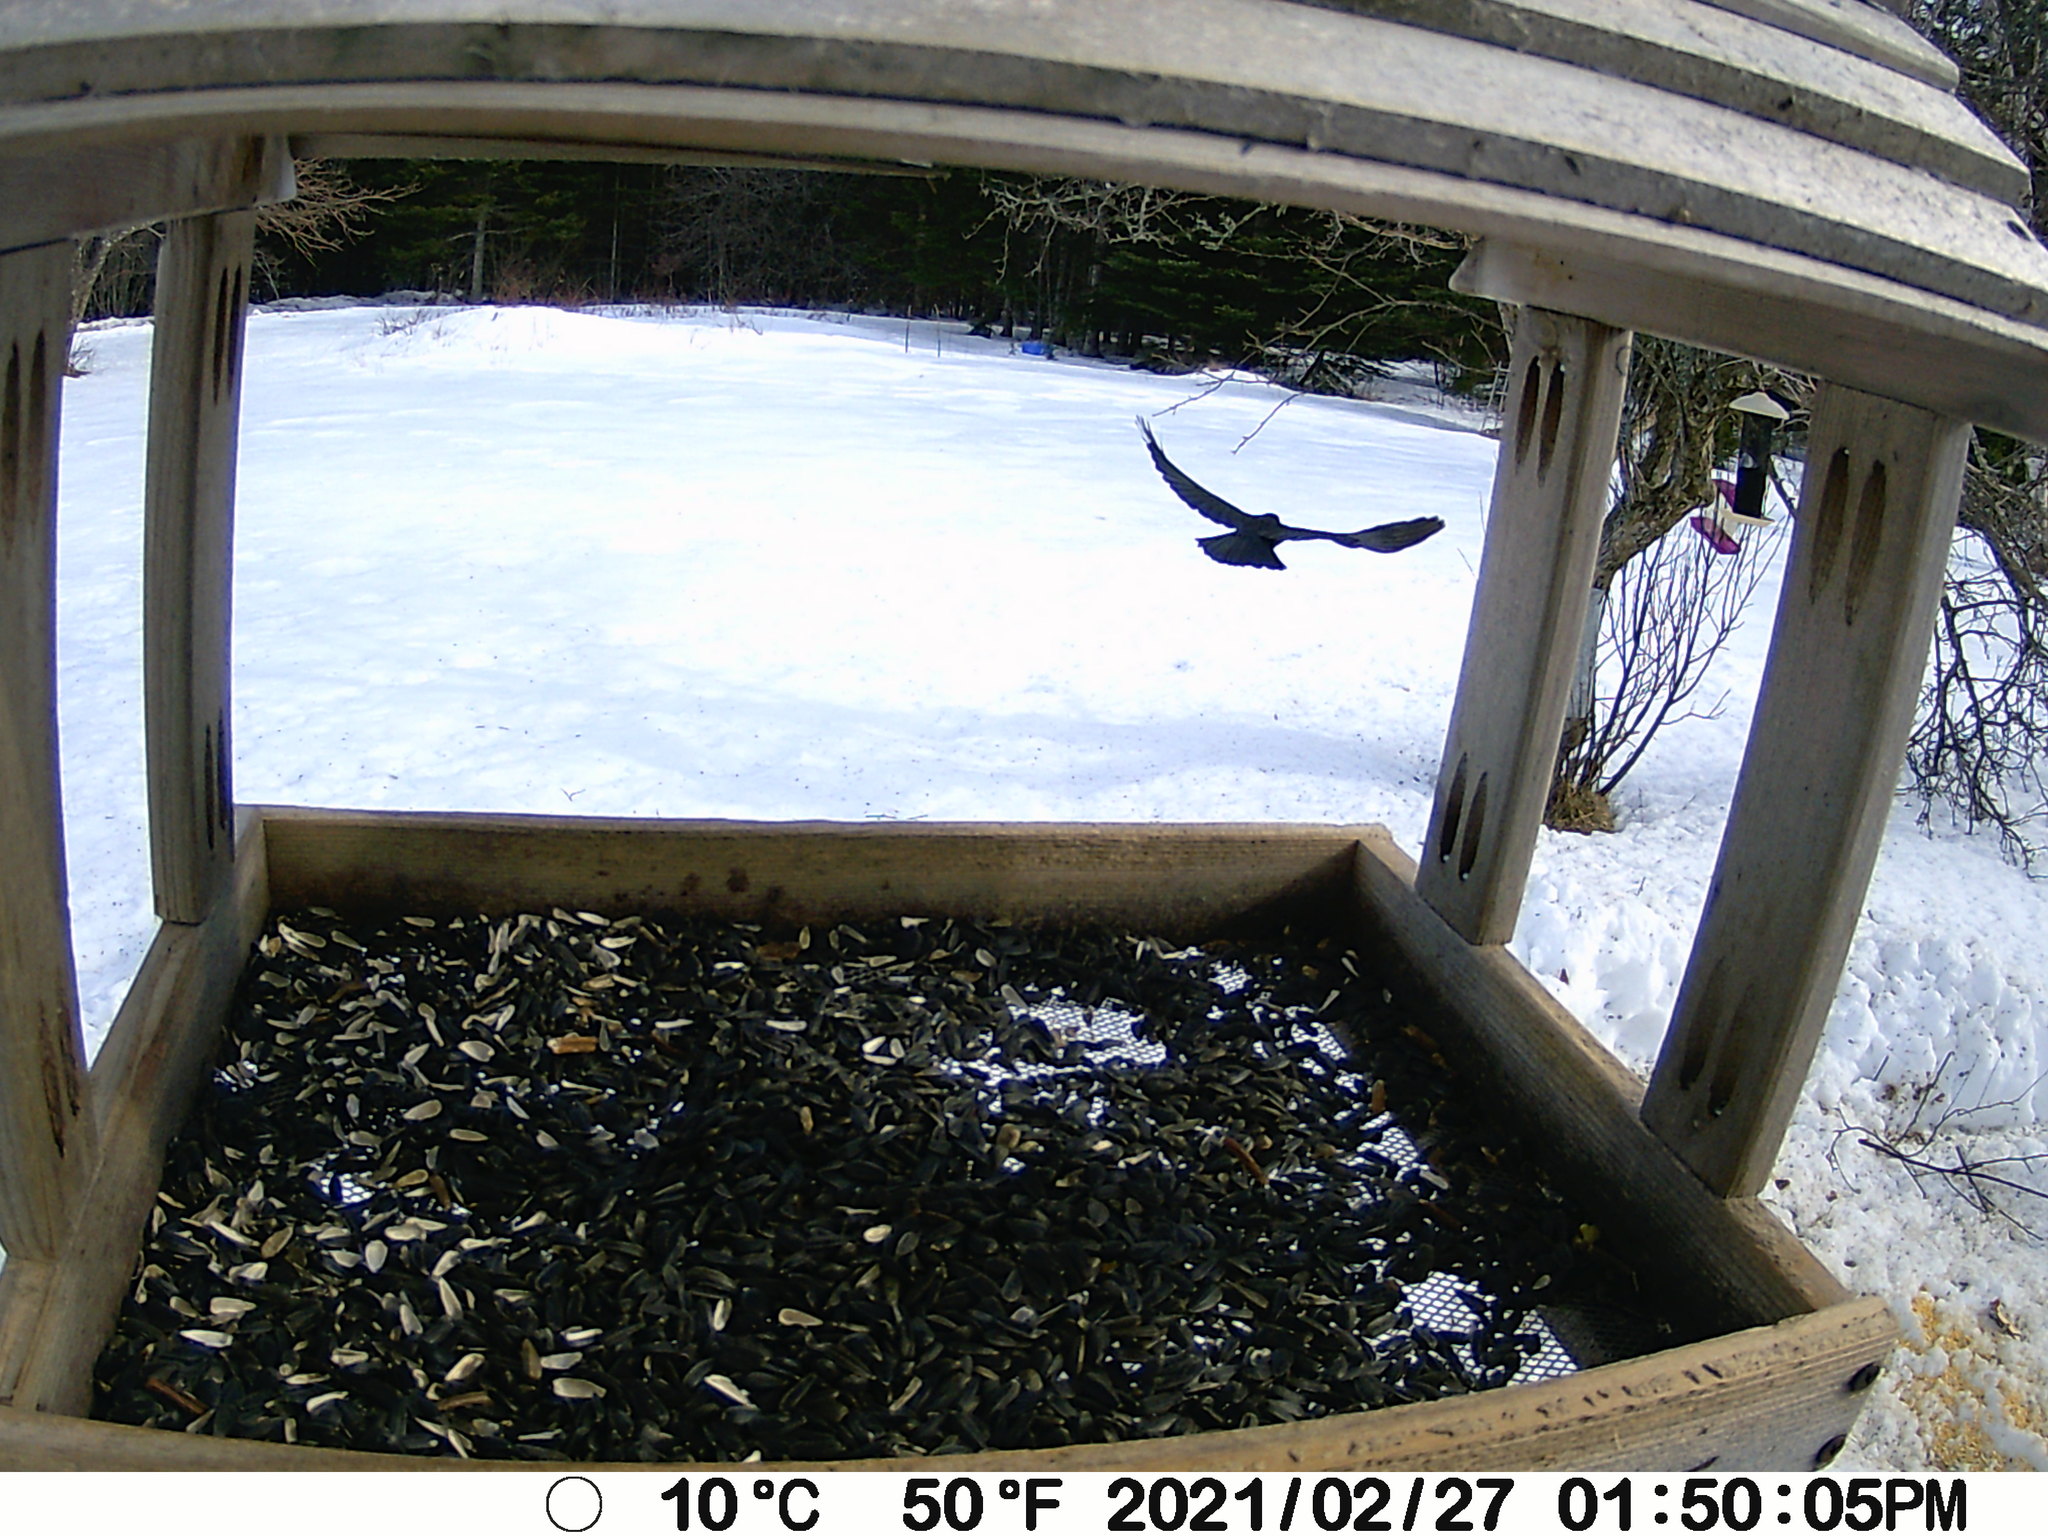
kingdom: Animalia
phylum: Chordata
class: Aves
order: Passeriformes
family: Corvidae
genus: Corvus
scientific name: Corvus brachyrhynchos
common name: American crow
